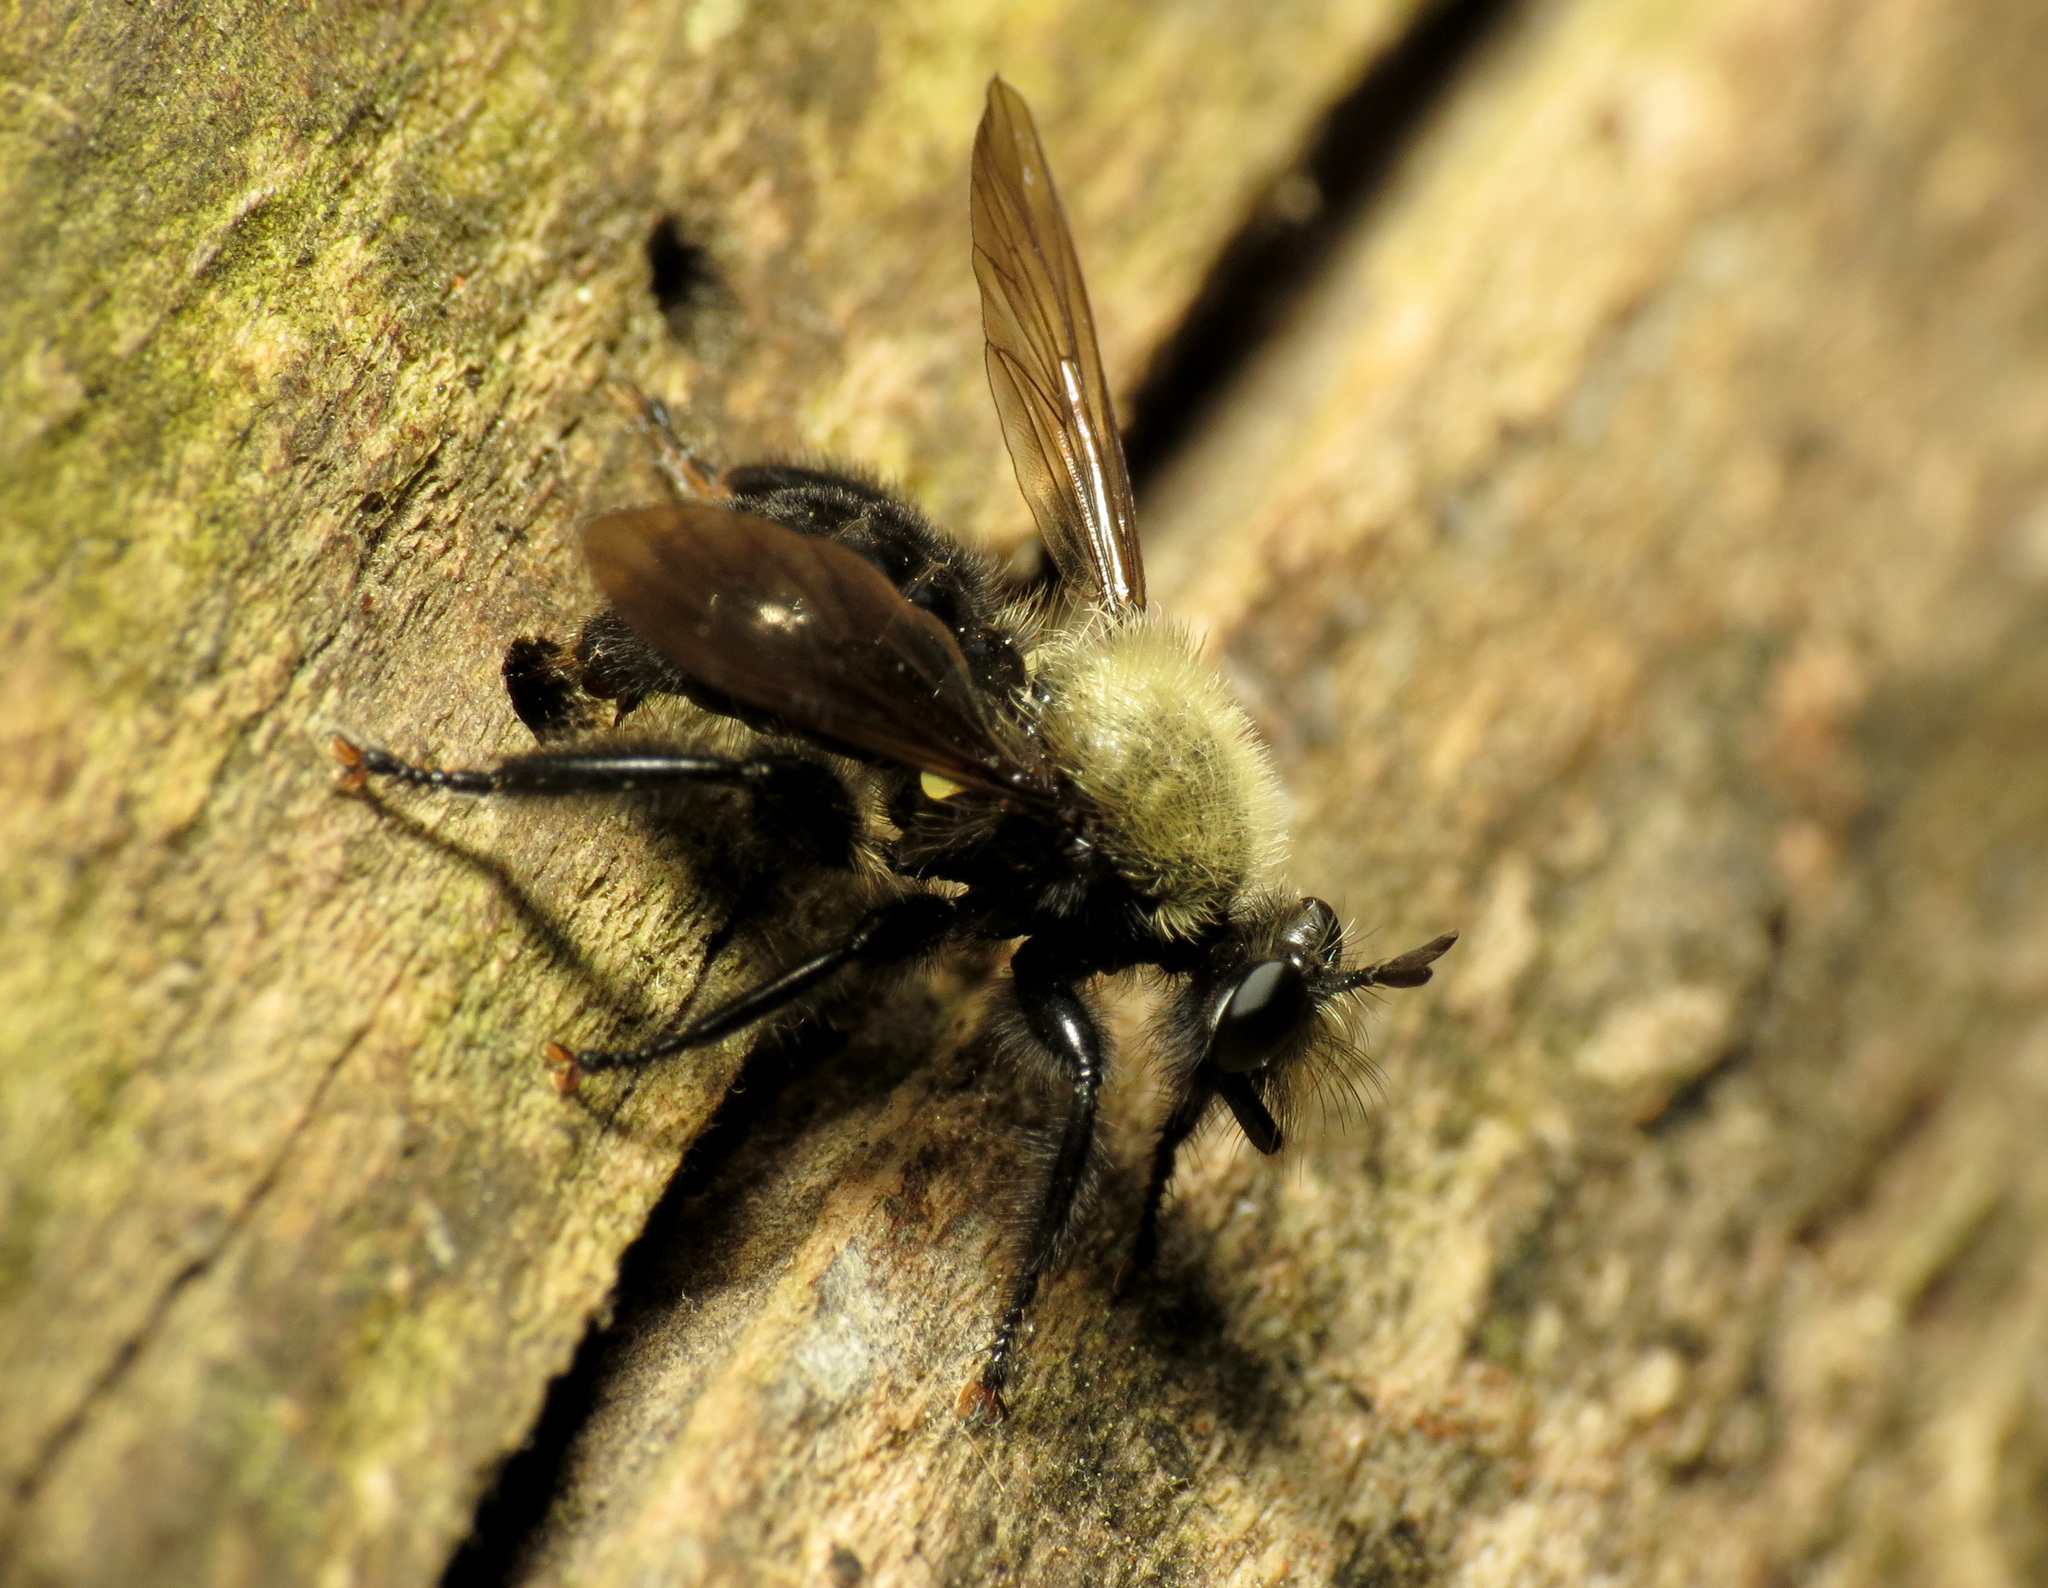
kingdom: Animalia
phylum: Arthropoda
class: Insecta
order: Diptera
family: Asilidae
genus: Laphria
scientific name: Laphria flavicollis
